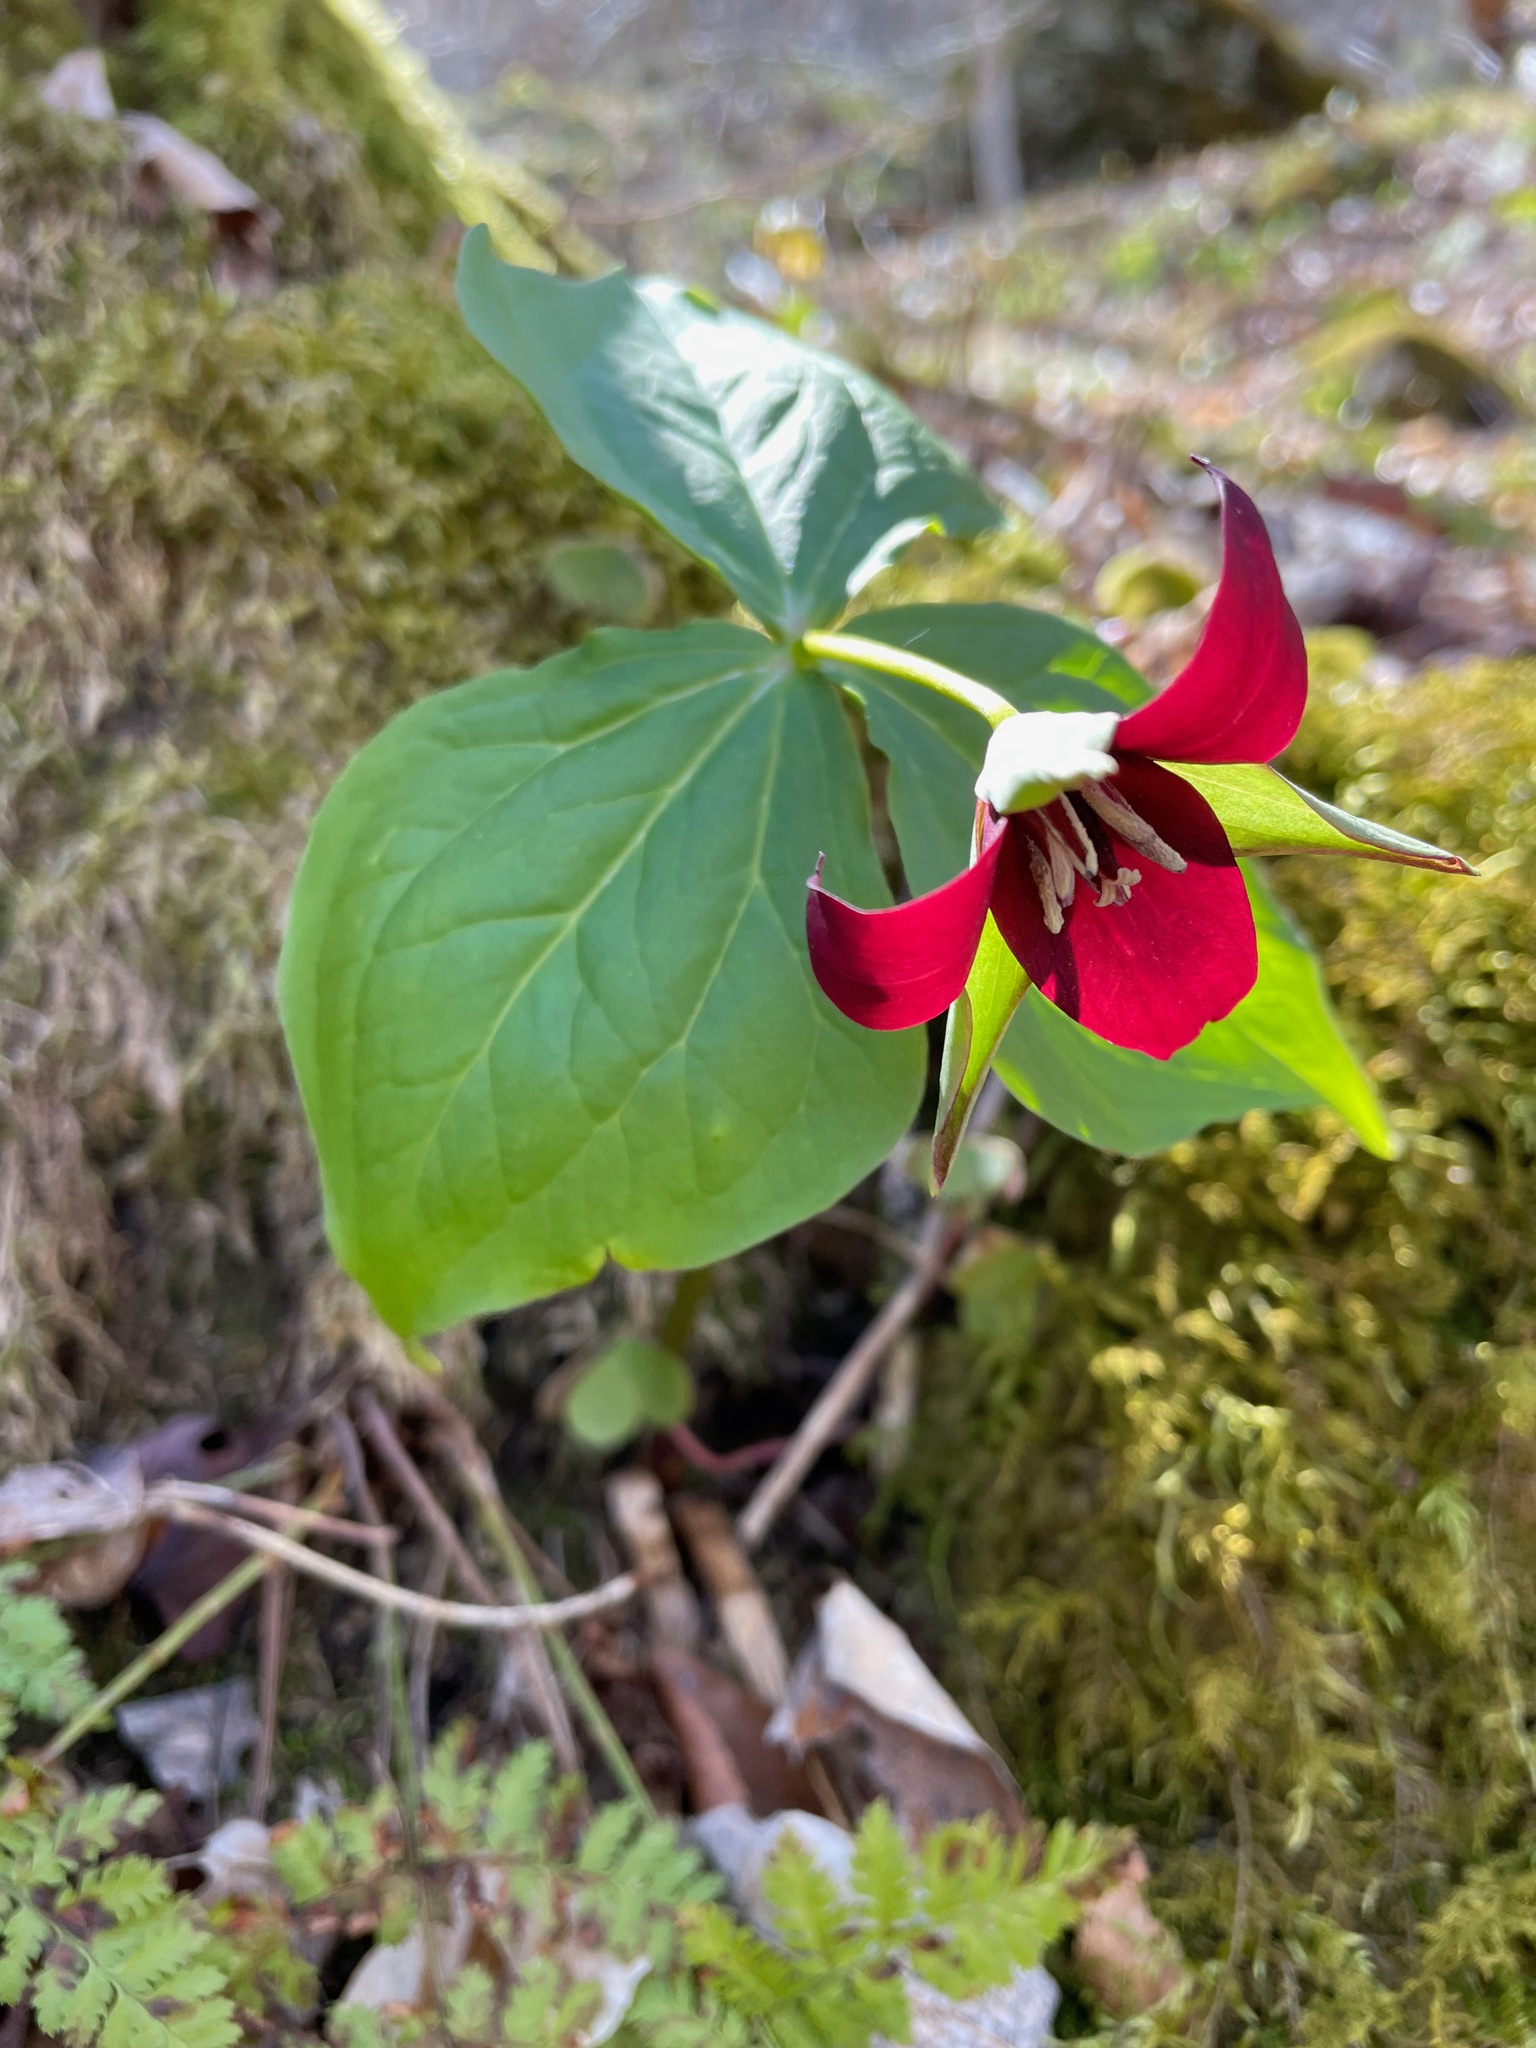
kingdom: Plantae
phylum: Tracheophyta
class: Liliopsida
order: Liliales
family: Melanthiaceae
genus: Trillium
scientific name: Trillium erectum
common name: Purple trillium
